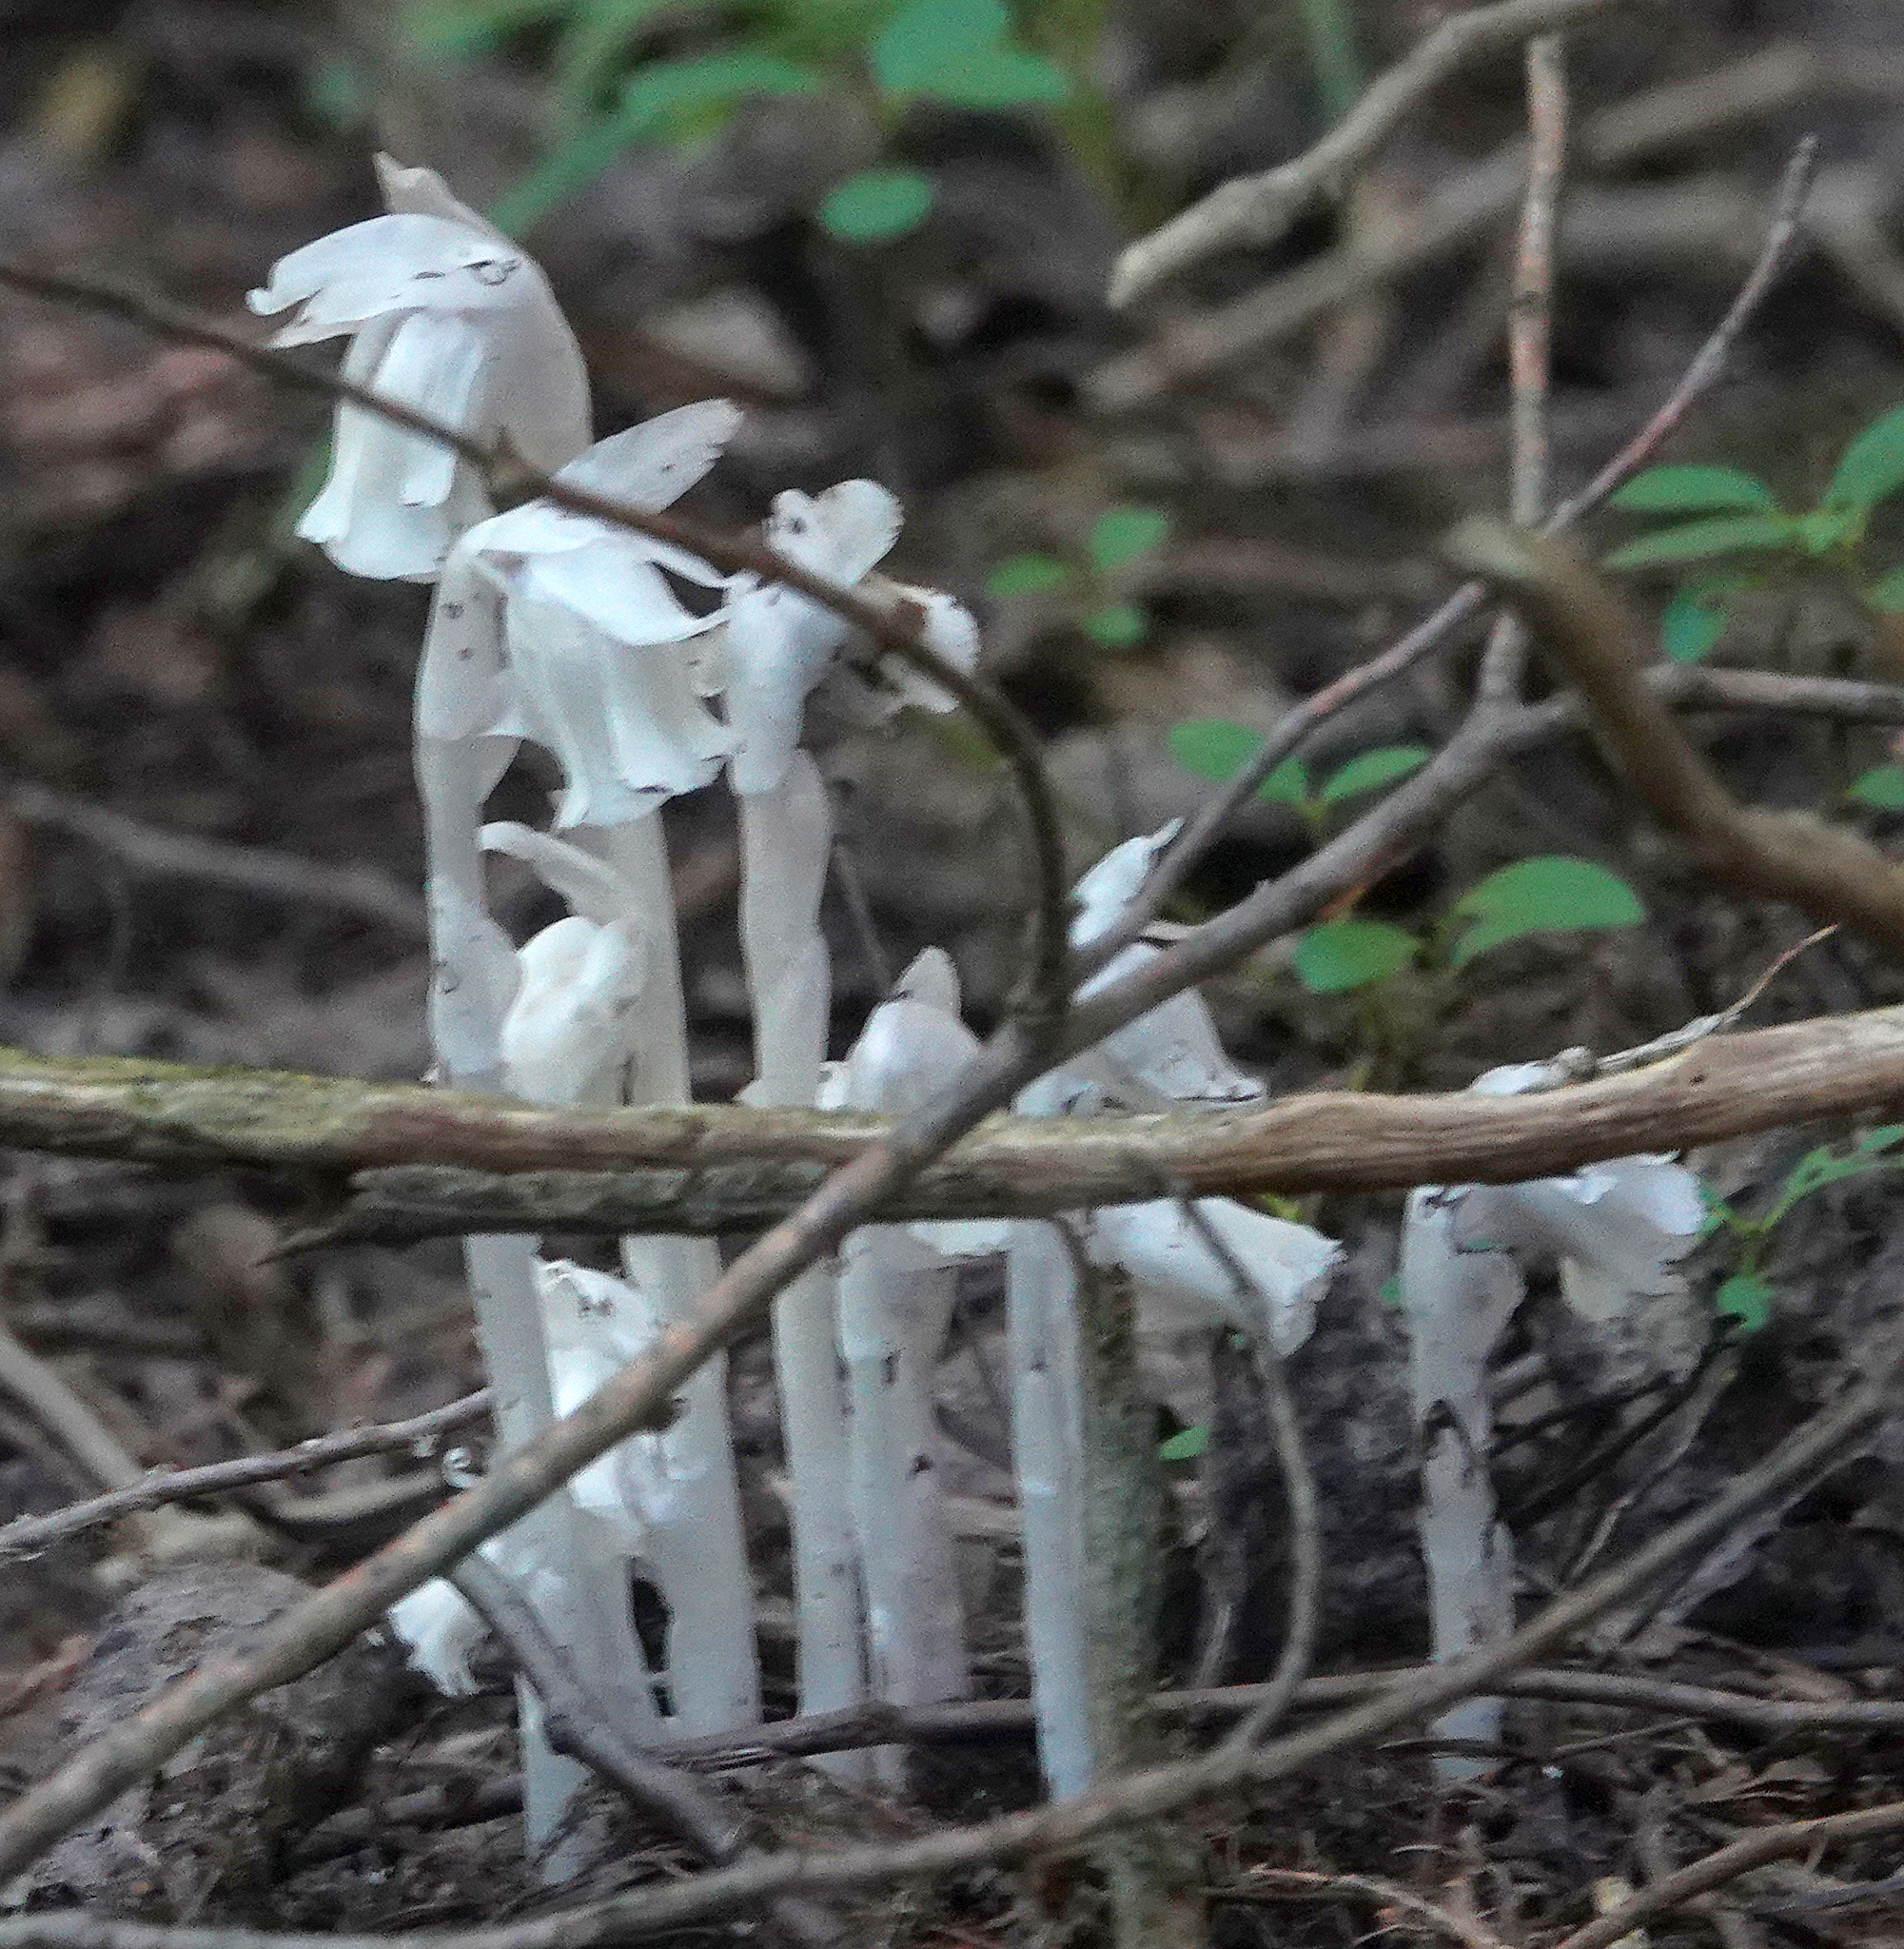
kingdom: Plantae
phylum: Tracheophyta
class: Magnoliopsida
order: Ericales
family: Ericaceae
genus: Monotropa
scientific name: Monotropa uniflora
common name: Convulsion root
